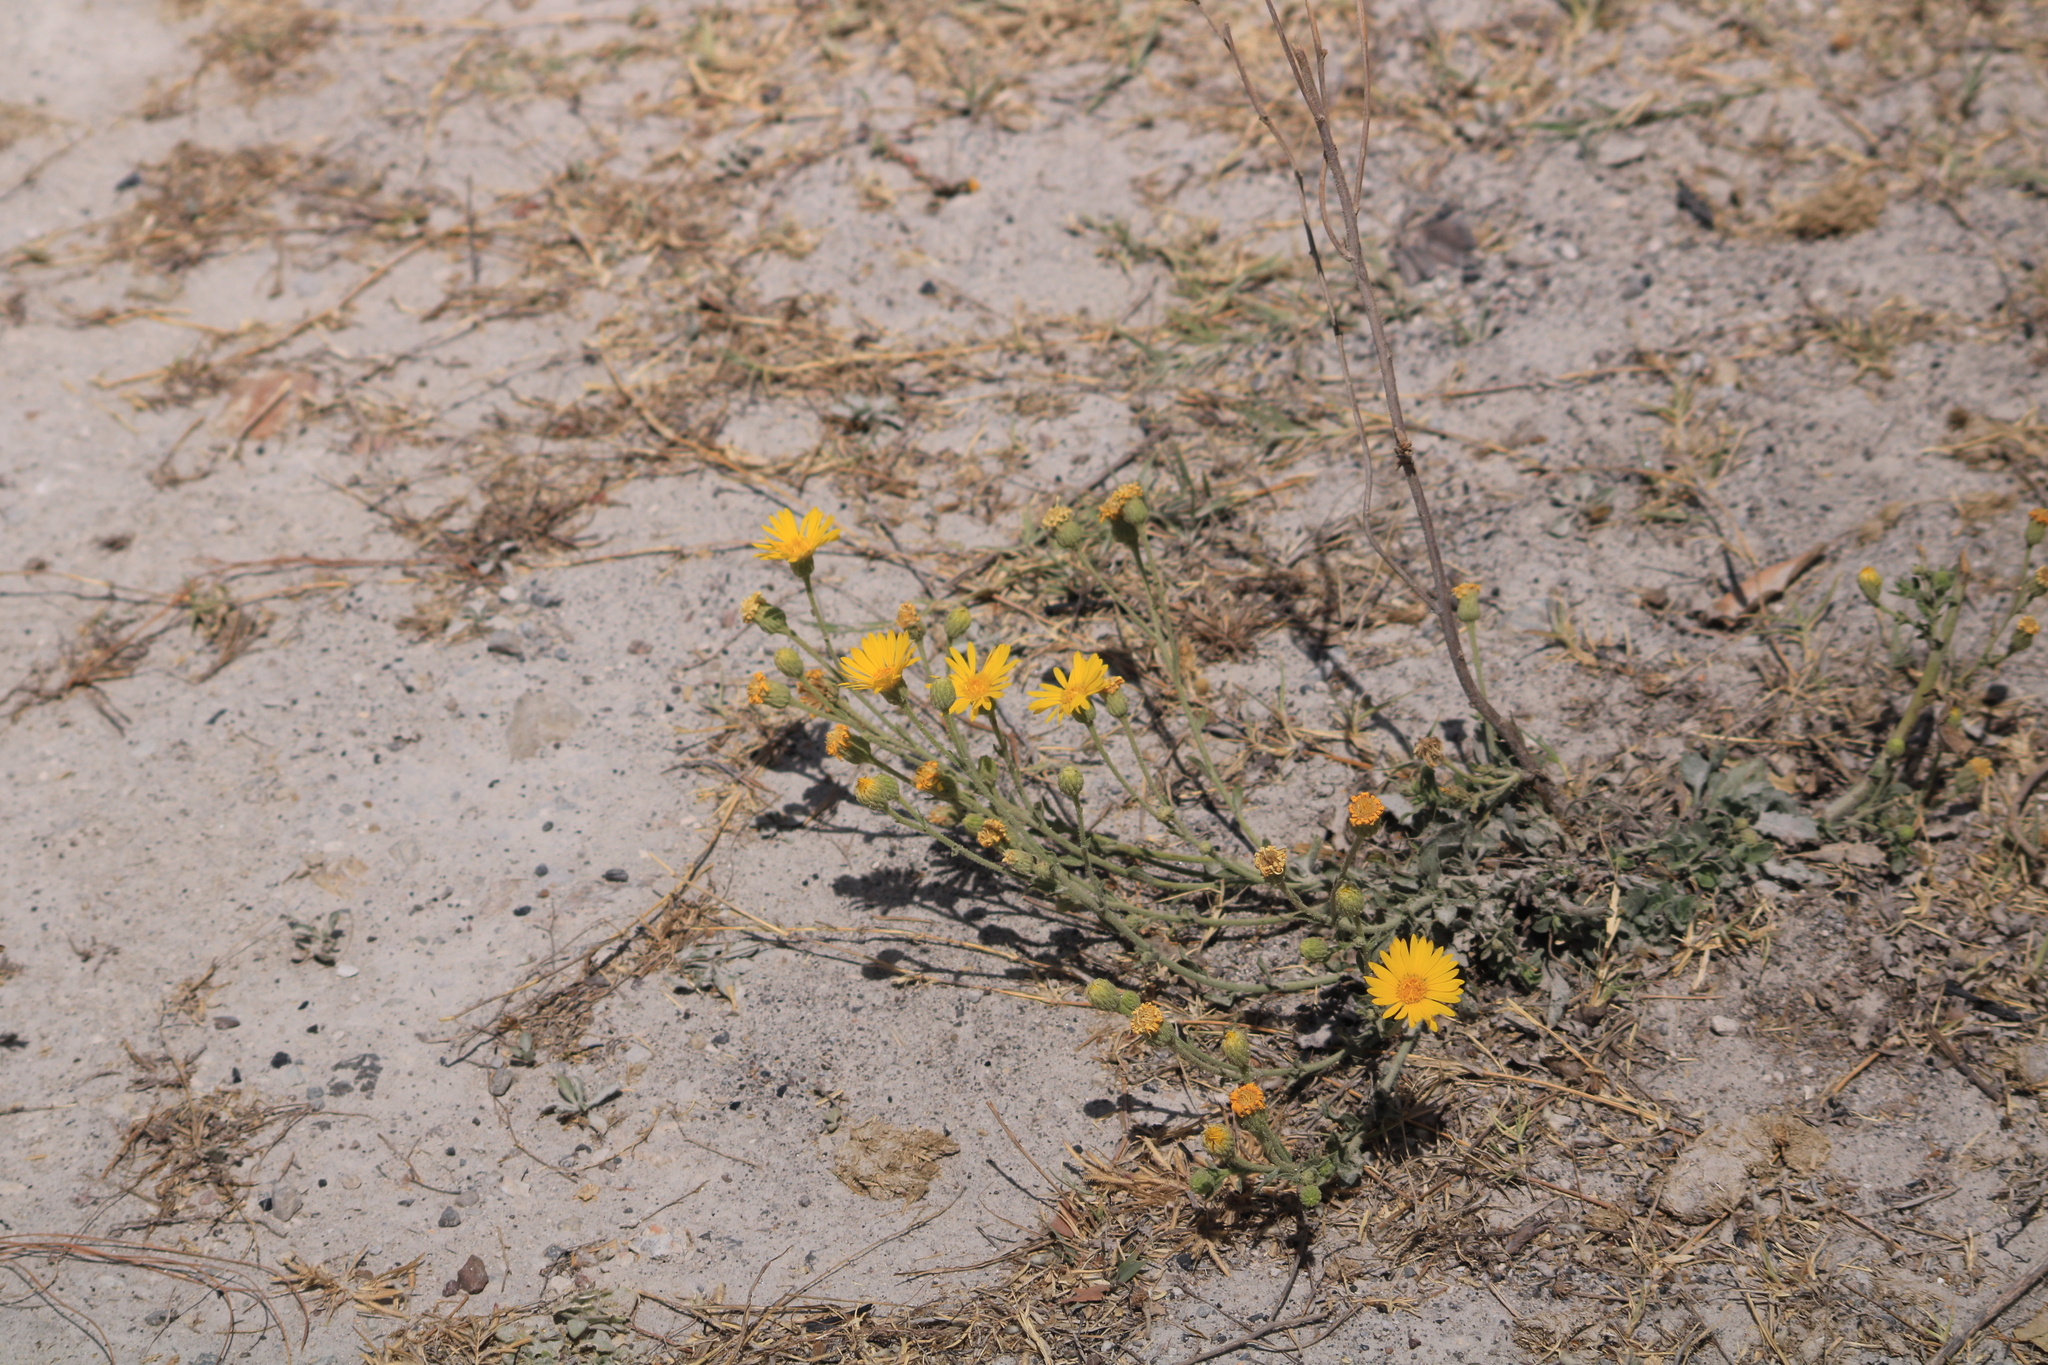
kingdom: Plantae
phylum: Tracheophyta
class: Magnoliopsida
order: Asterales
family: Asteraceae
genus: Heterotheca
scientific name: Heterotheca inuloides
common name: False arnica
